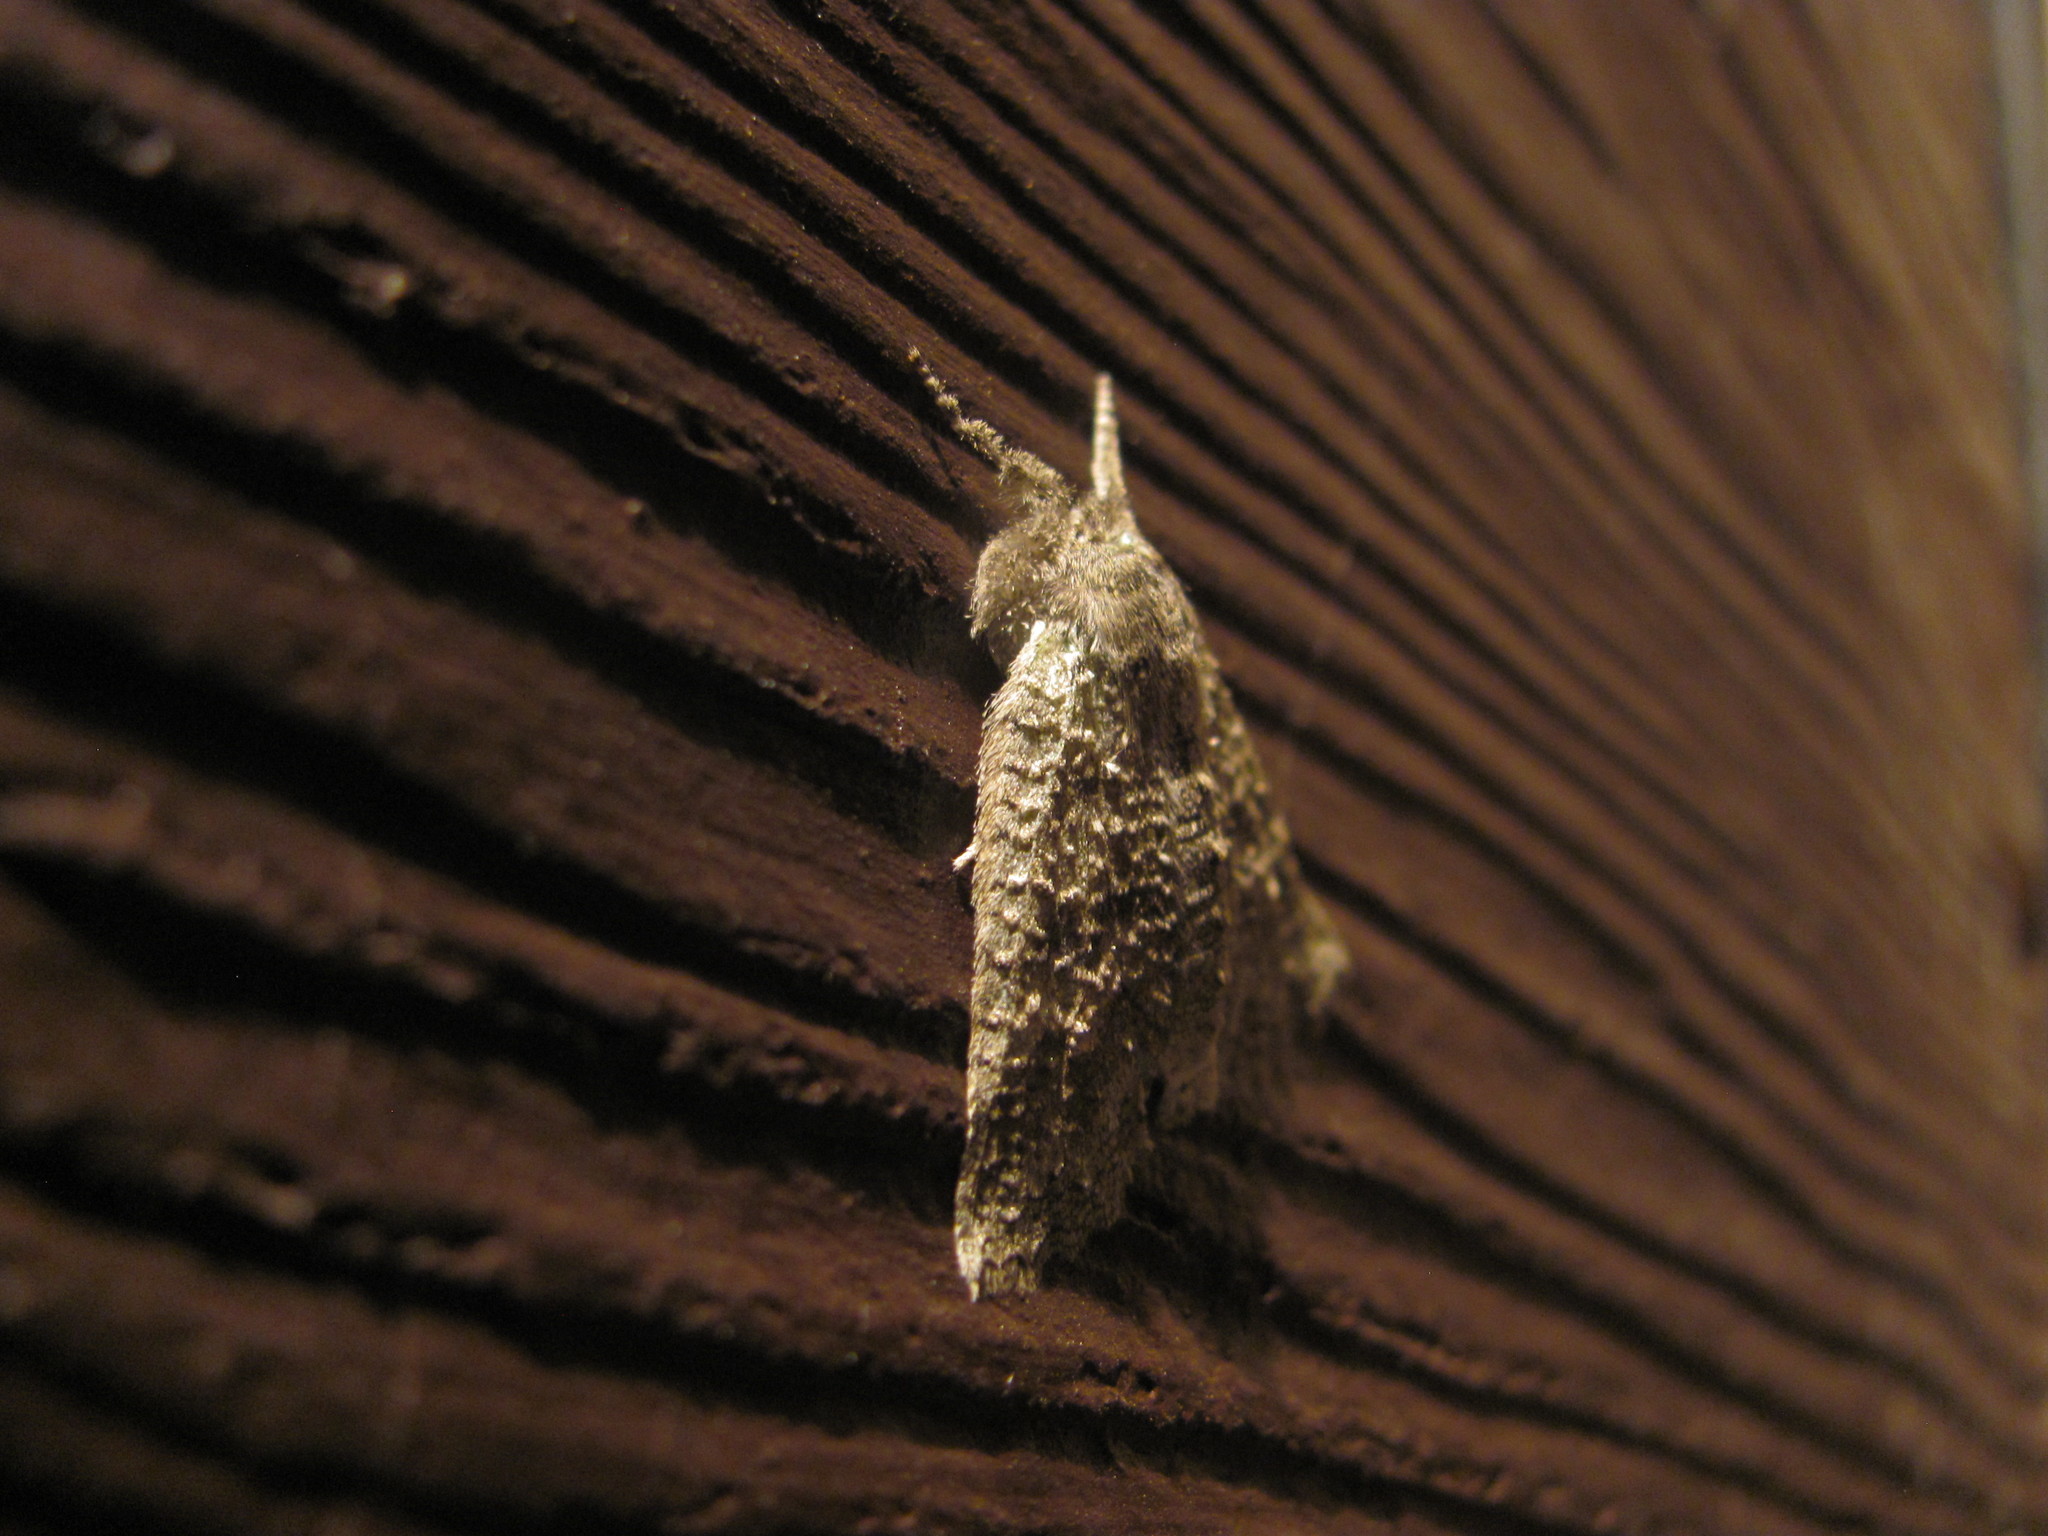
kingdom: Animalia
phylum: Arthropoda
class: Insecta
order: Lepidoptera
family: Geometridae
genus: Declana
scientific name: Declana niveata
